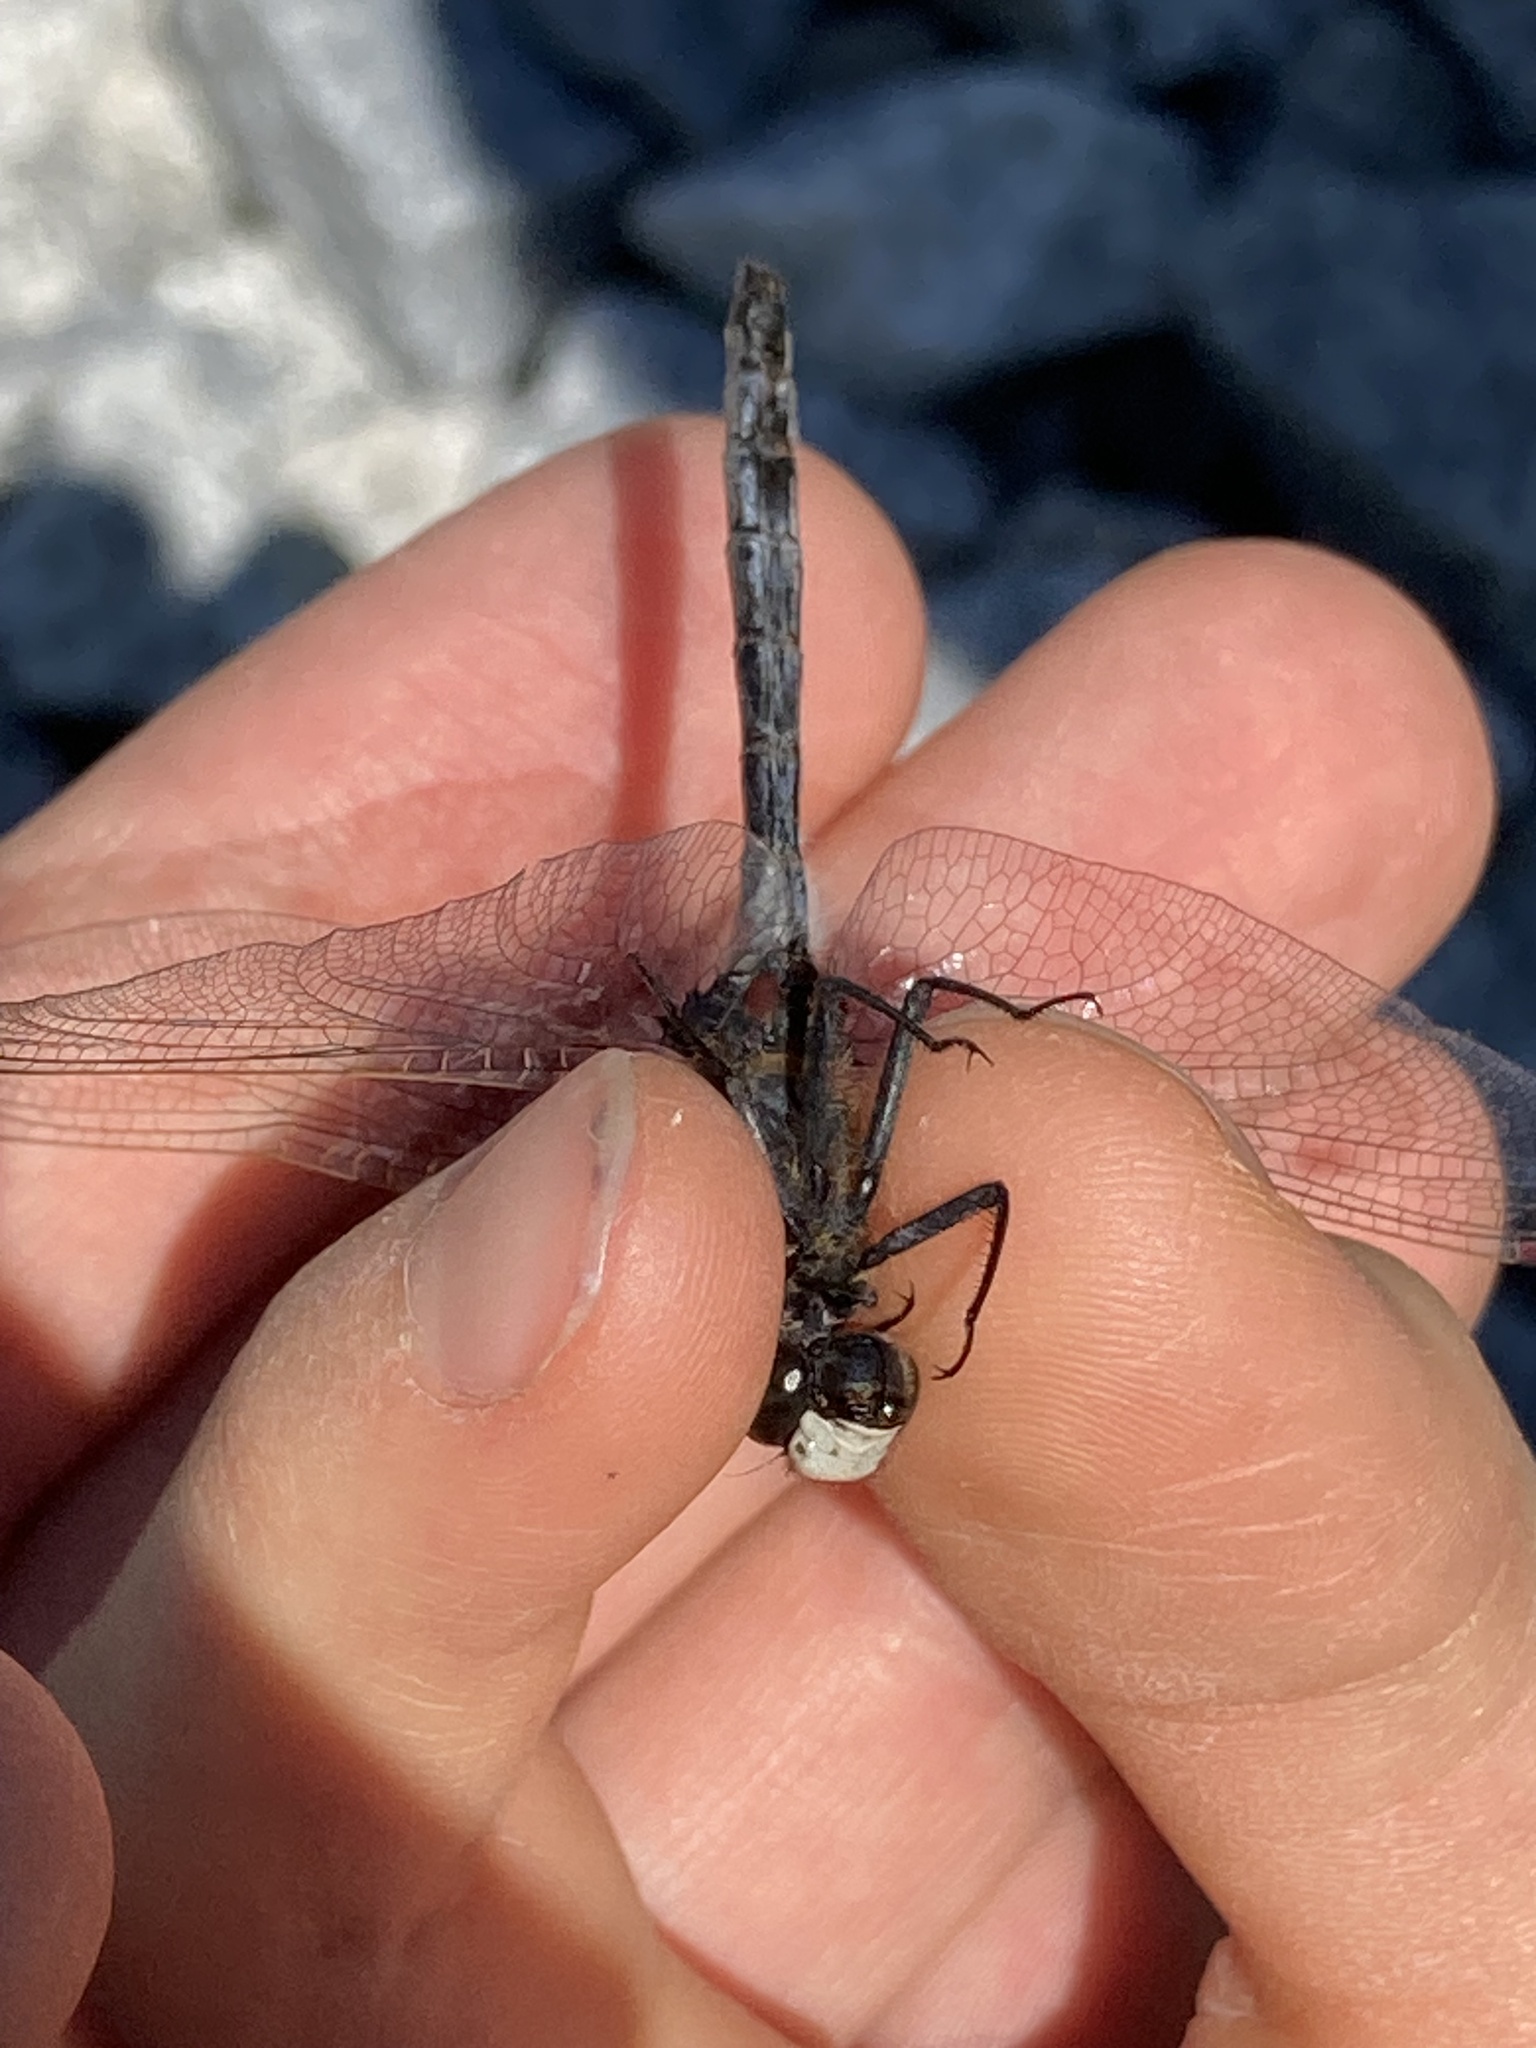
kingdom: Animalia
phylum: Arthropoda
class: Insecta
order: Odonata
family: Libellulidae
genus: Leucorrhinia
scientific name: Leucorrhinia rubicunda
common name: Ruby whiteface
